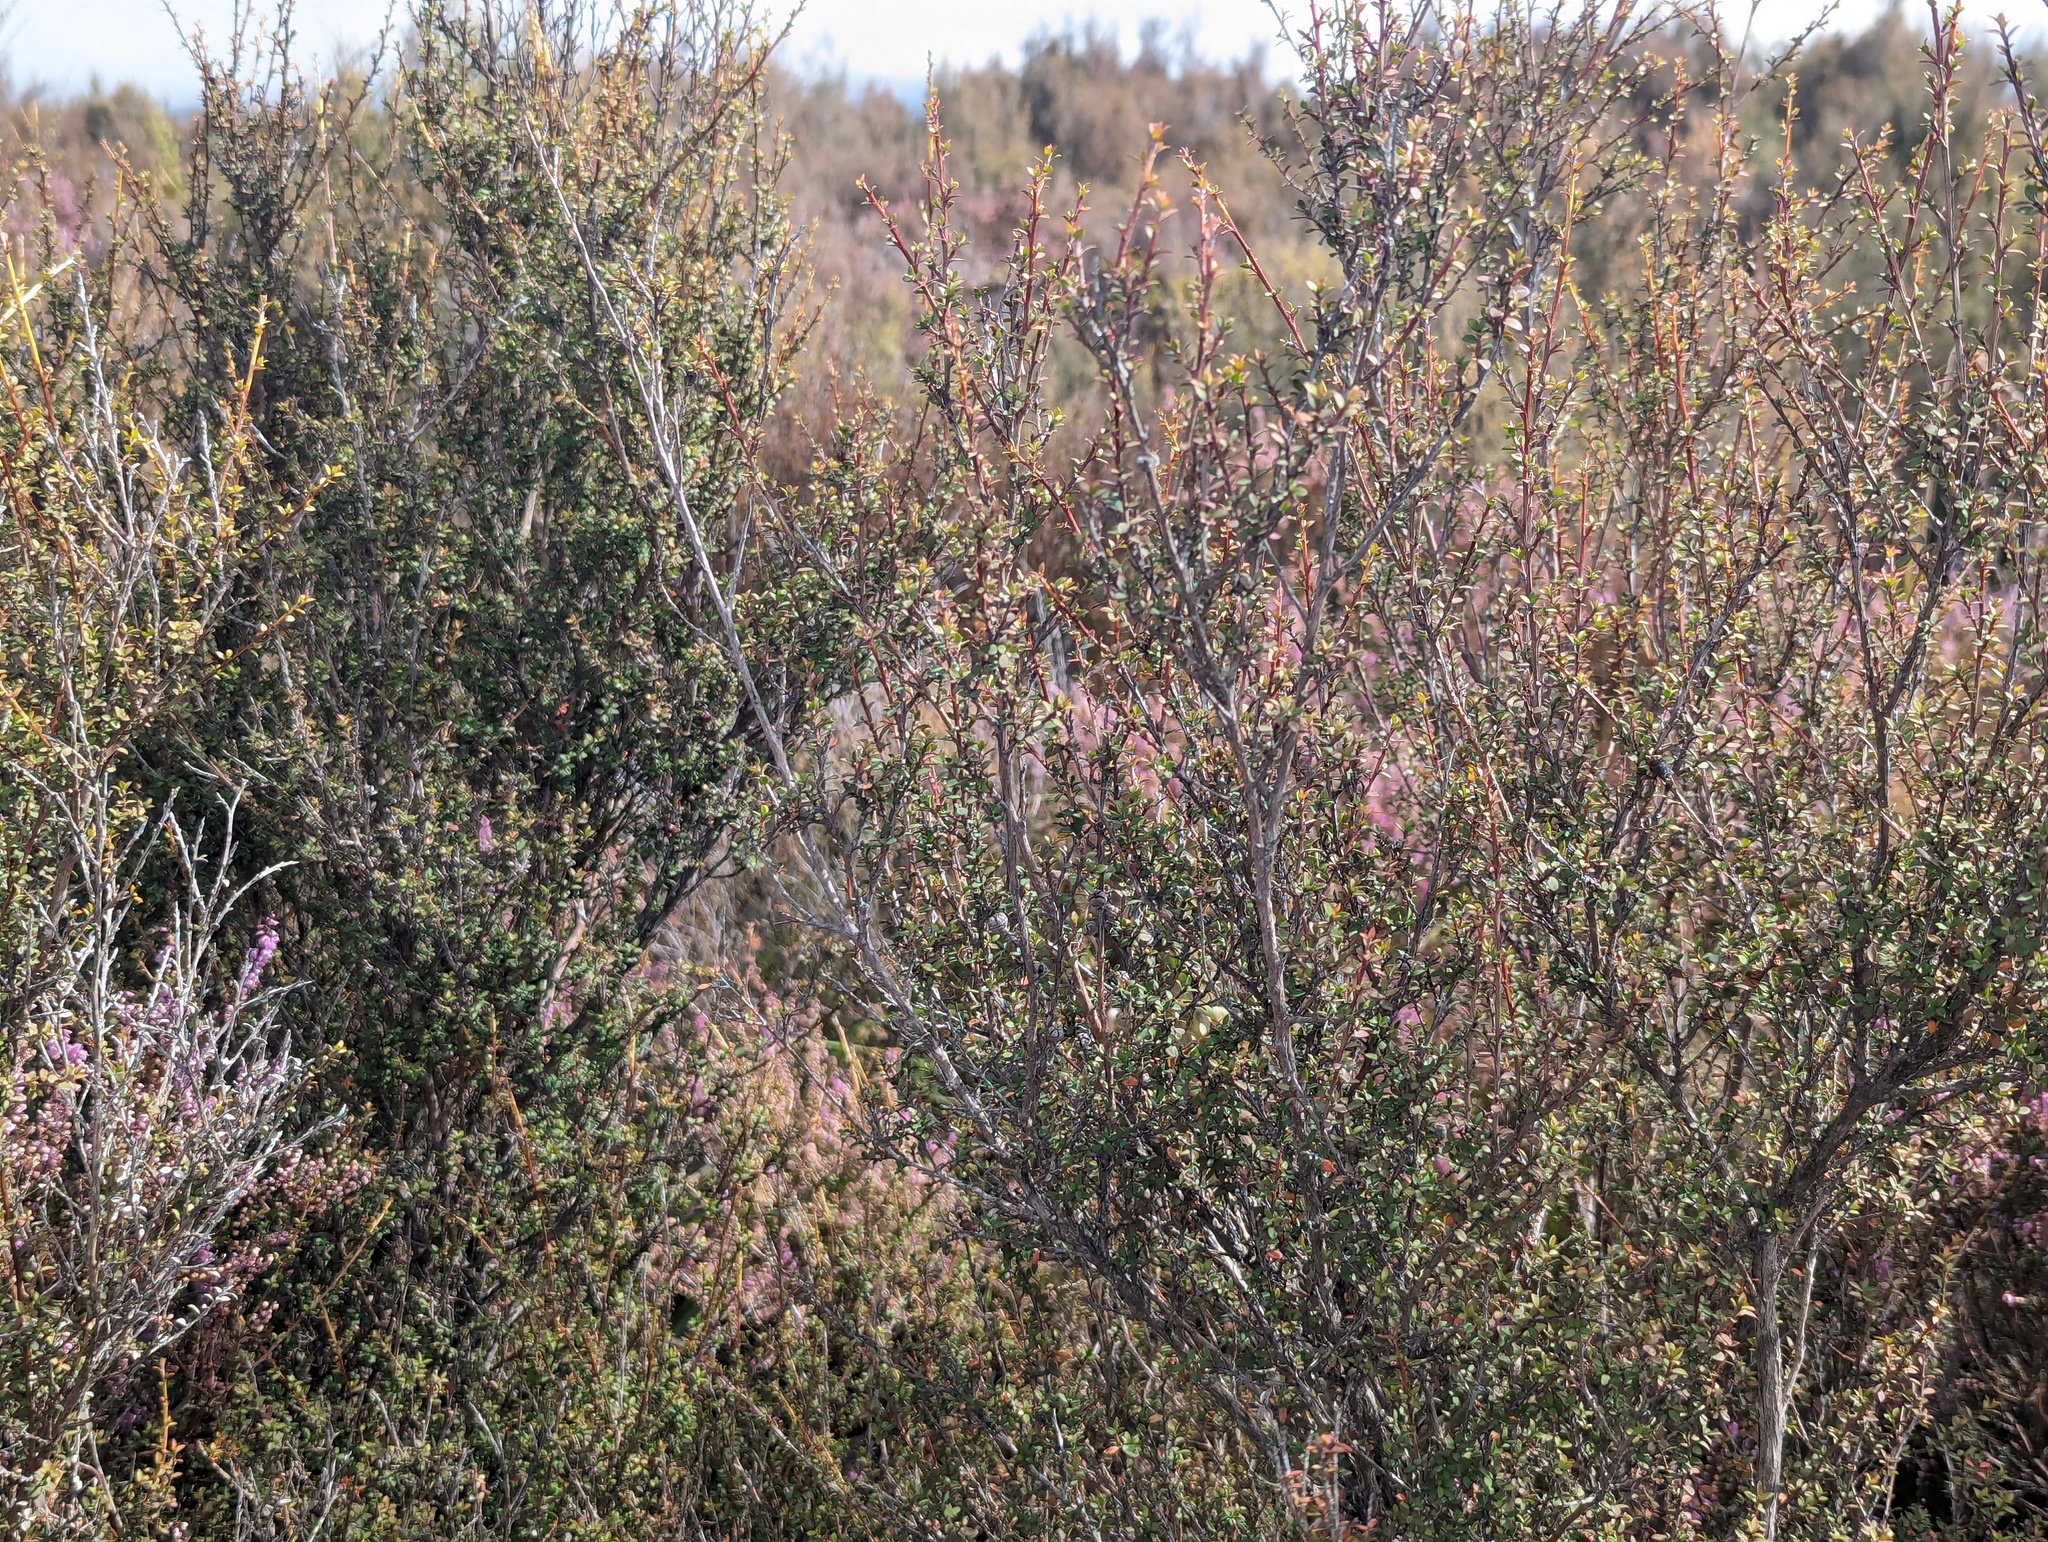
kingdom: Plantae
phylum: Tracheophyta
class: Magnoliopsida
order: Myrtales
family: Myrtaceae
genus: Leptospermum
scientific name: Leptospermum scoparium
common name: Broom tea-tree
